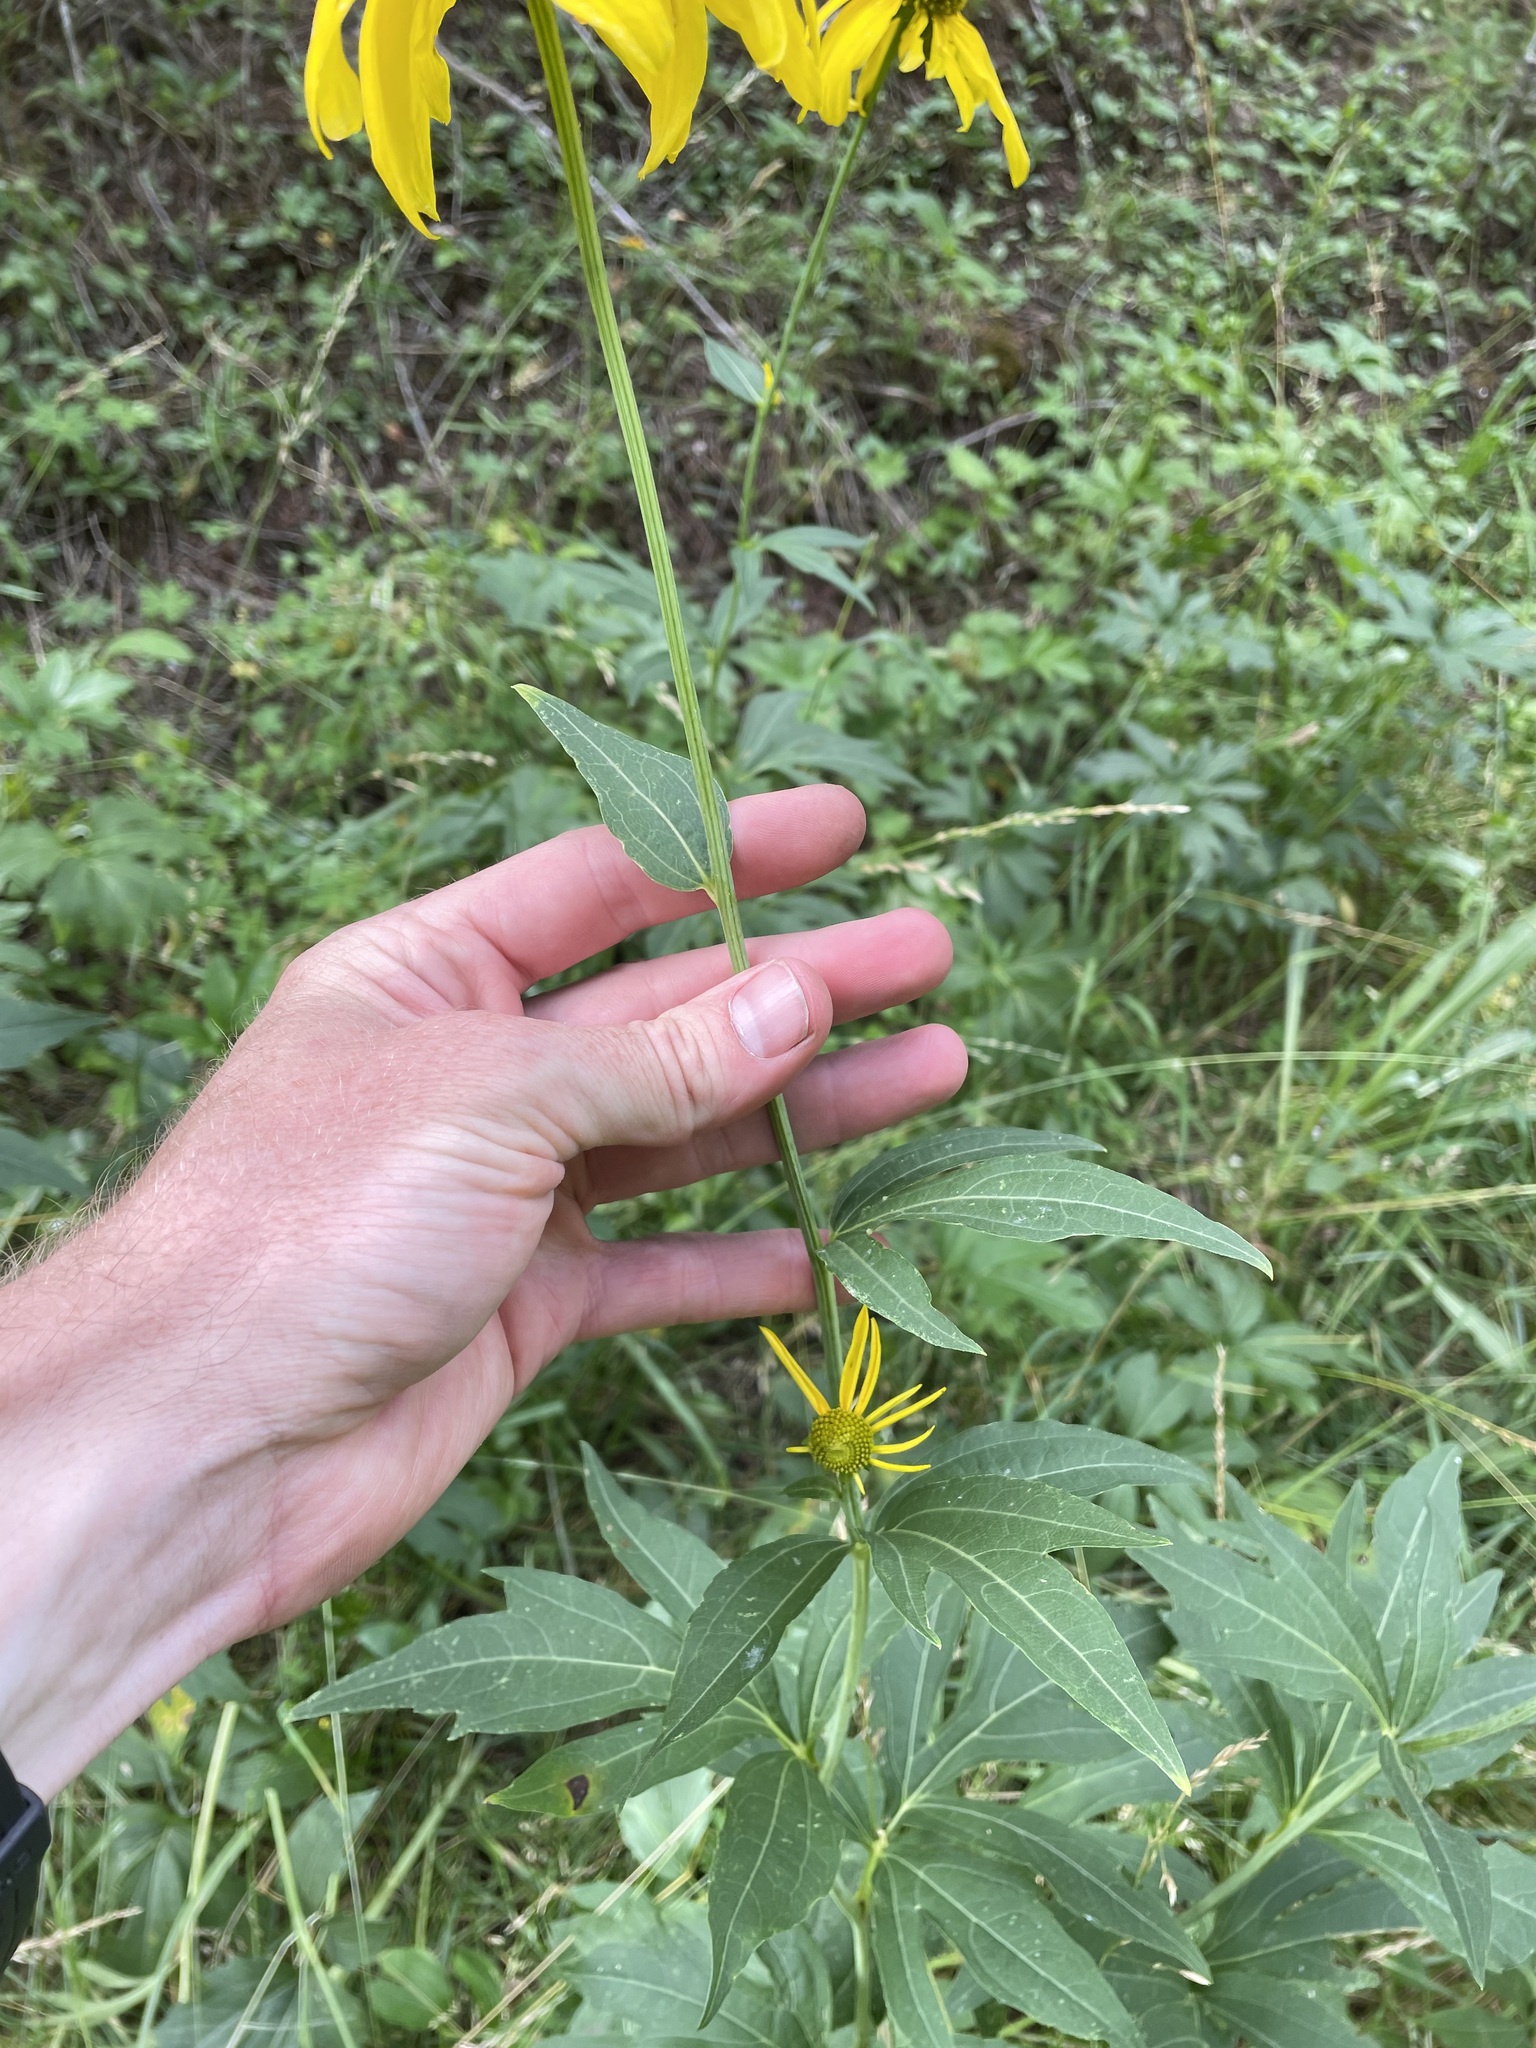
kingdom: Plantae
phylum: Tracheophyta
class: Magnoliopsida
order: Asterales
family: Asteraceae
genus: Rudbeckia
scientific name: Rudbeckia laciniata
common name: Coneflower
